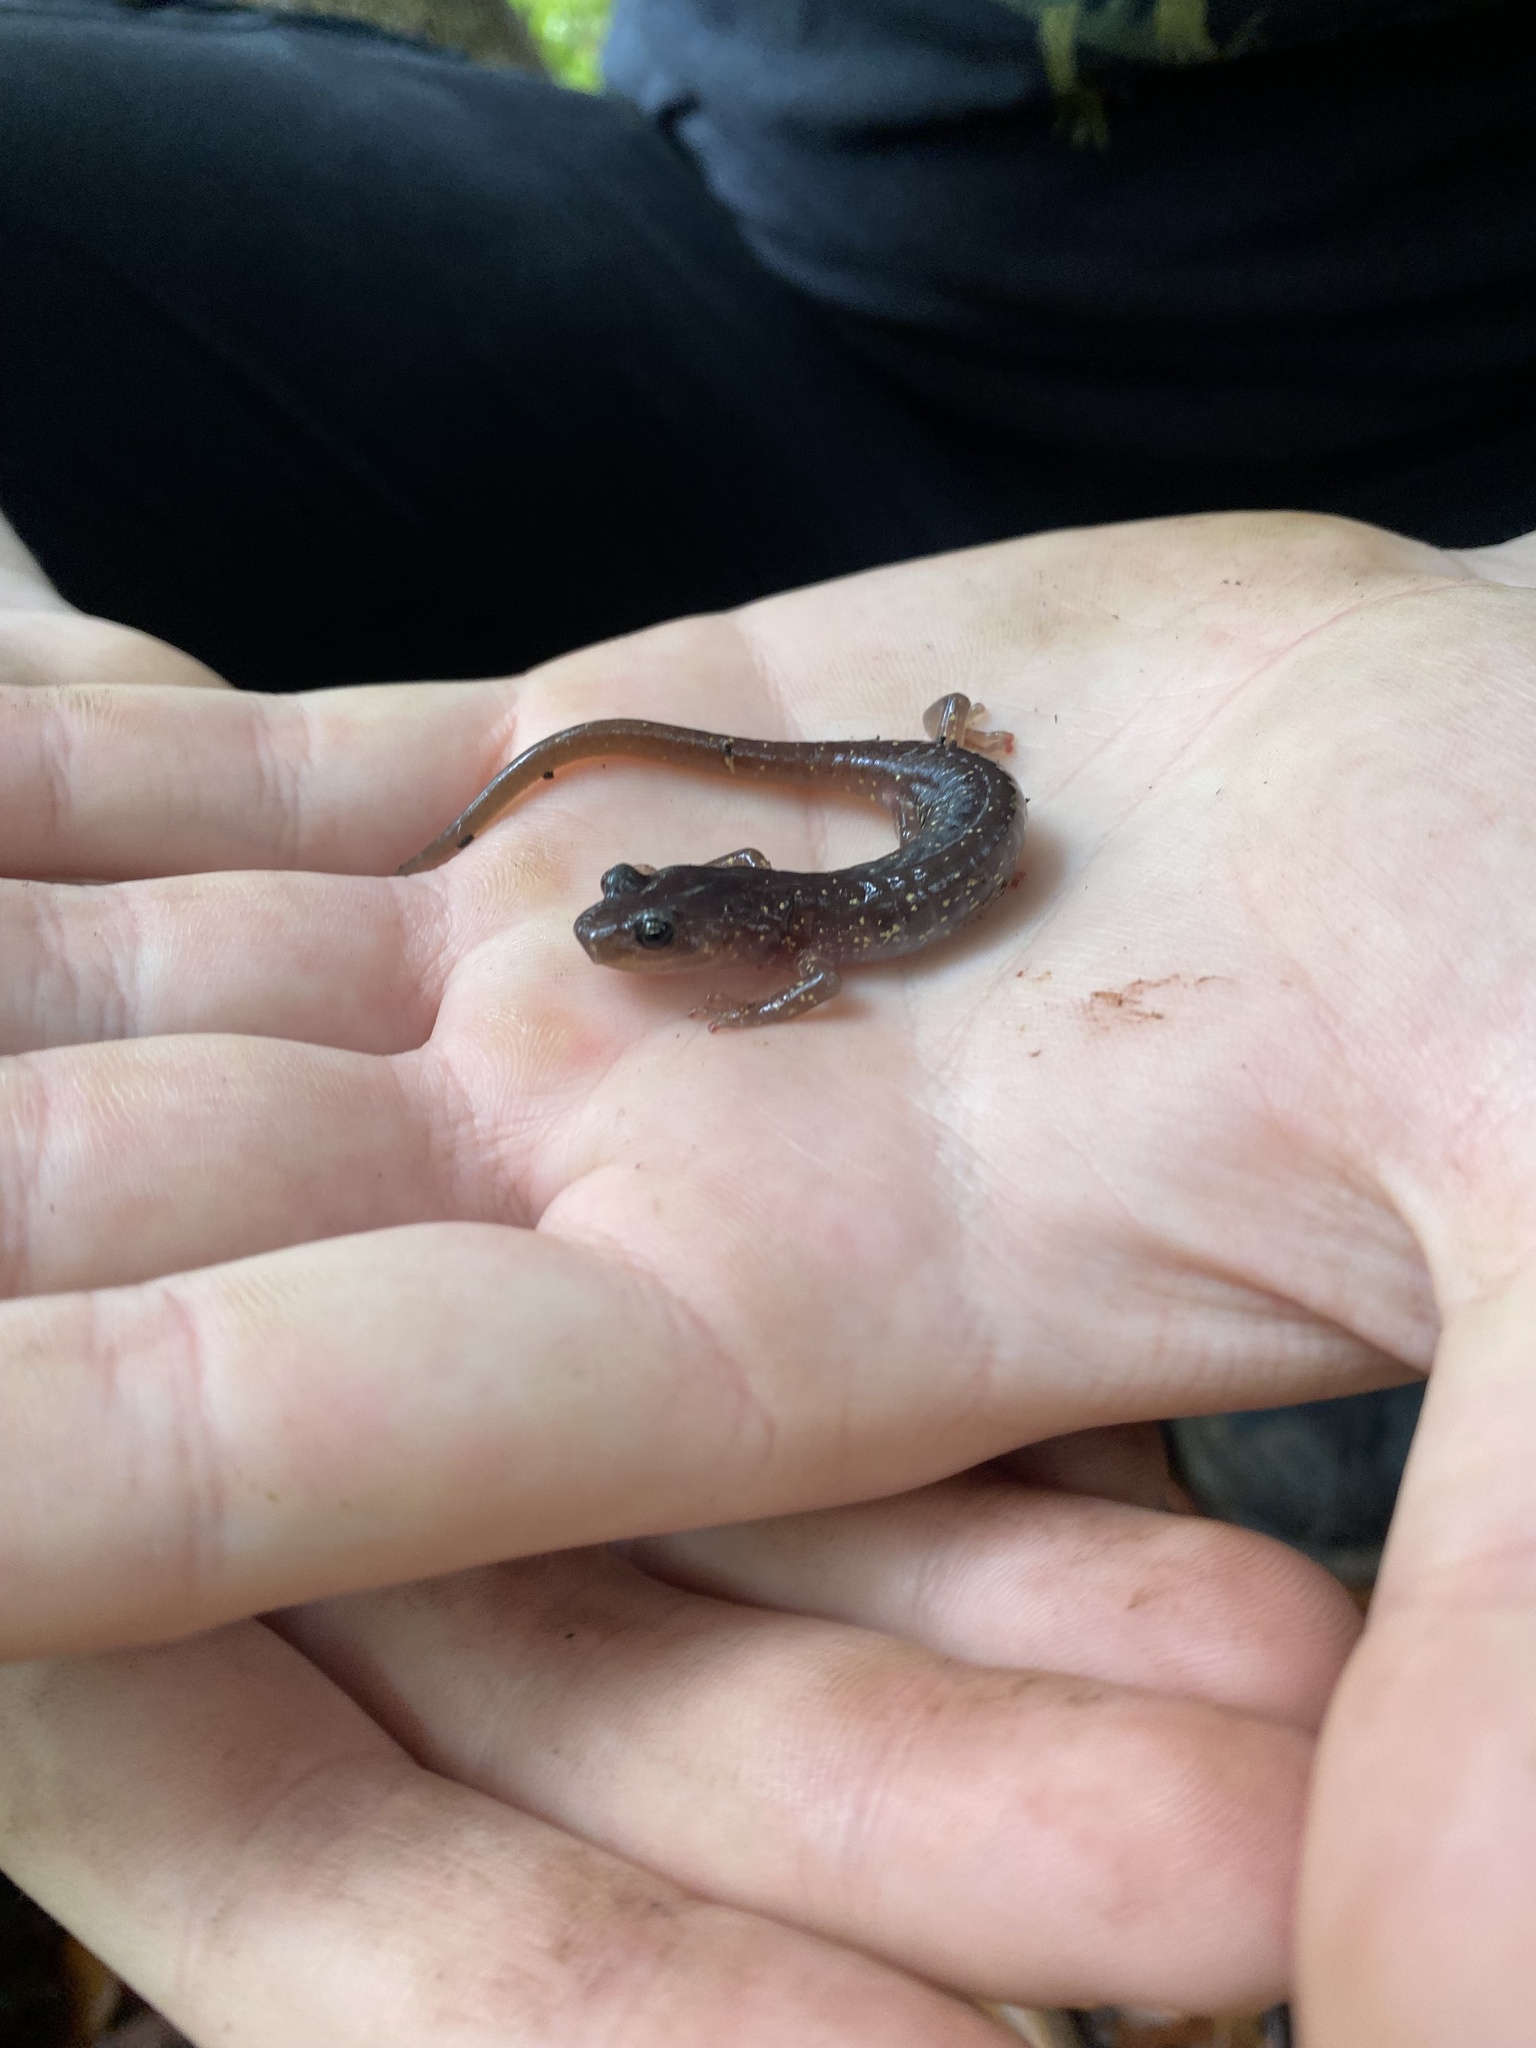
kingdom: Animalia
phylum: Chordata
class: Amphibia
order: Caudata
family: Plethodontidae
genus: Aneides
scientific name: Aneides lugubris
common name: Arboreal salamander
